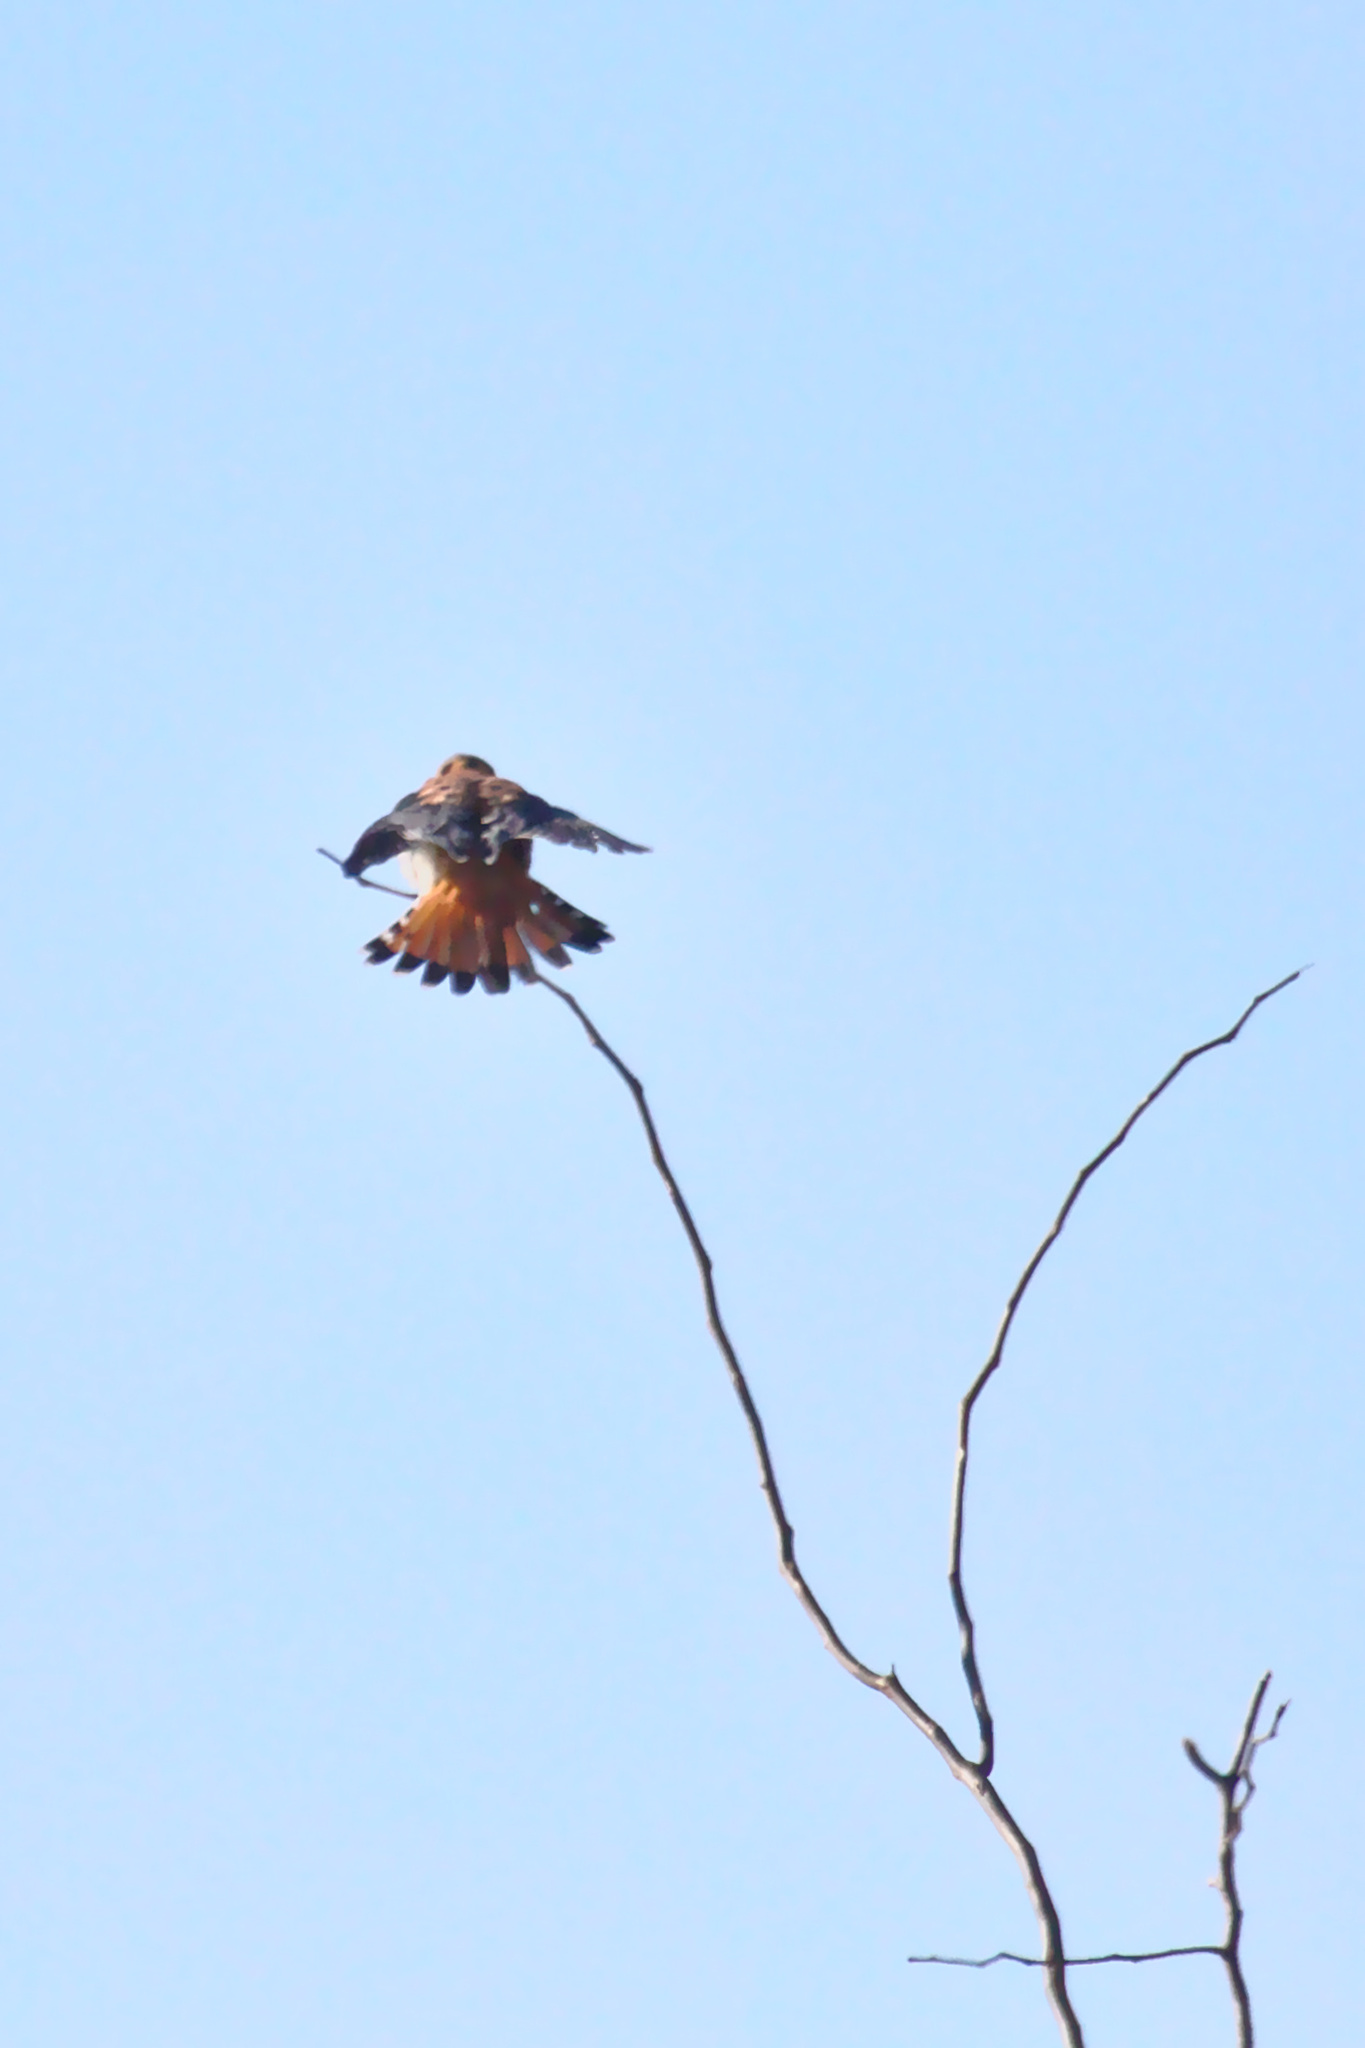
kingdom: Animalia
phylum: Chordata
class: Aves
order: Falconiformes
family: Falconidae
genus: Falco
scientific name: Falco sparverius
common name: American kestrel
